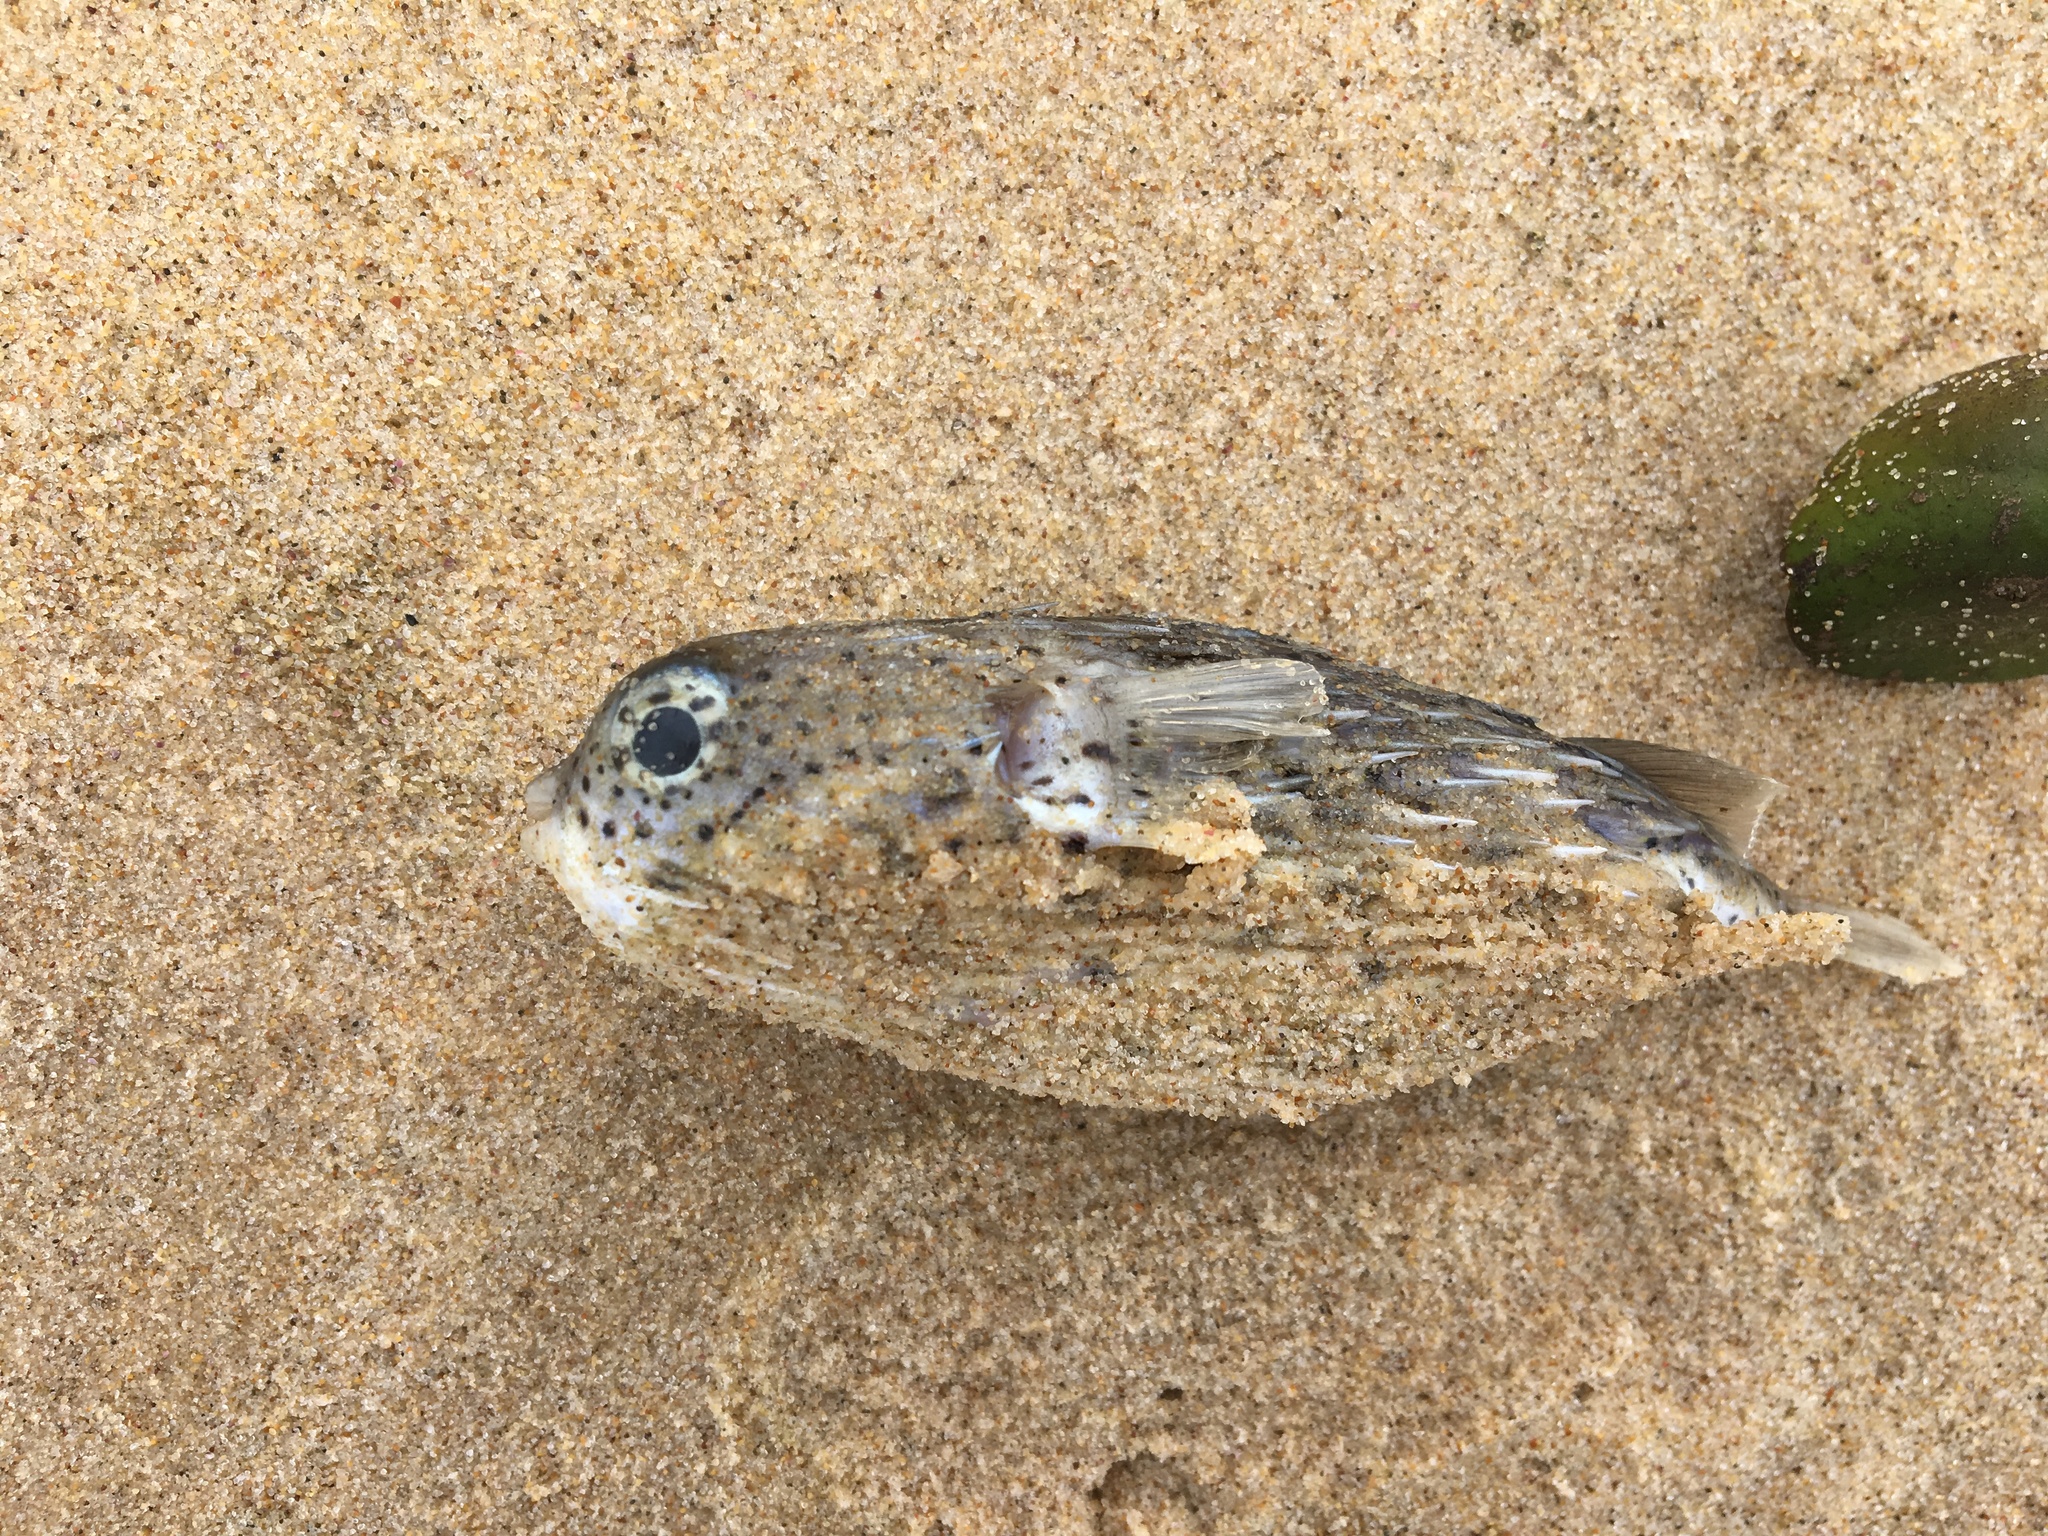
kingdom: Animalia
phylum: Chordata
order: Tetraodontiformes
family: Diodontidae
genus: Diodon
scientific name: Diodon holocanthus
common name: Balloonfish
